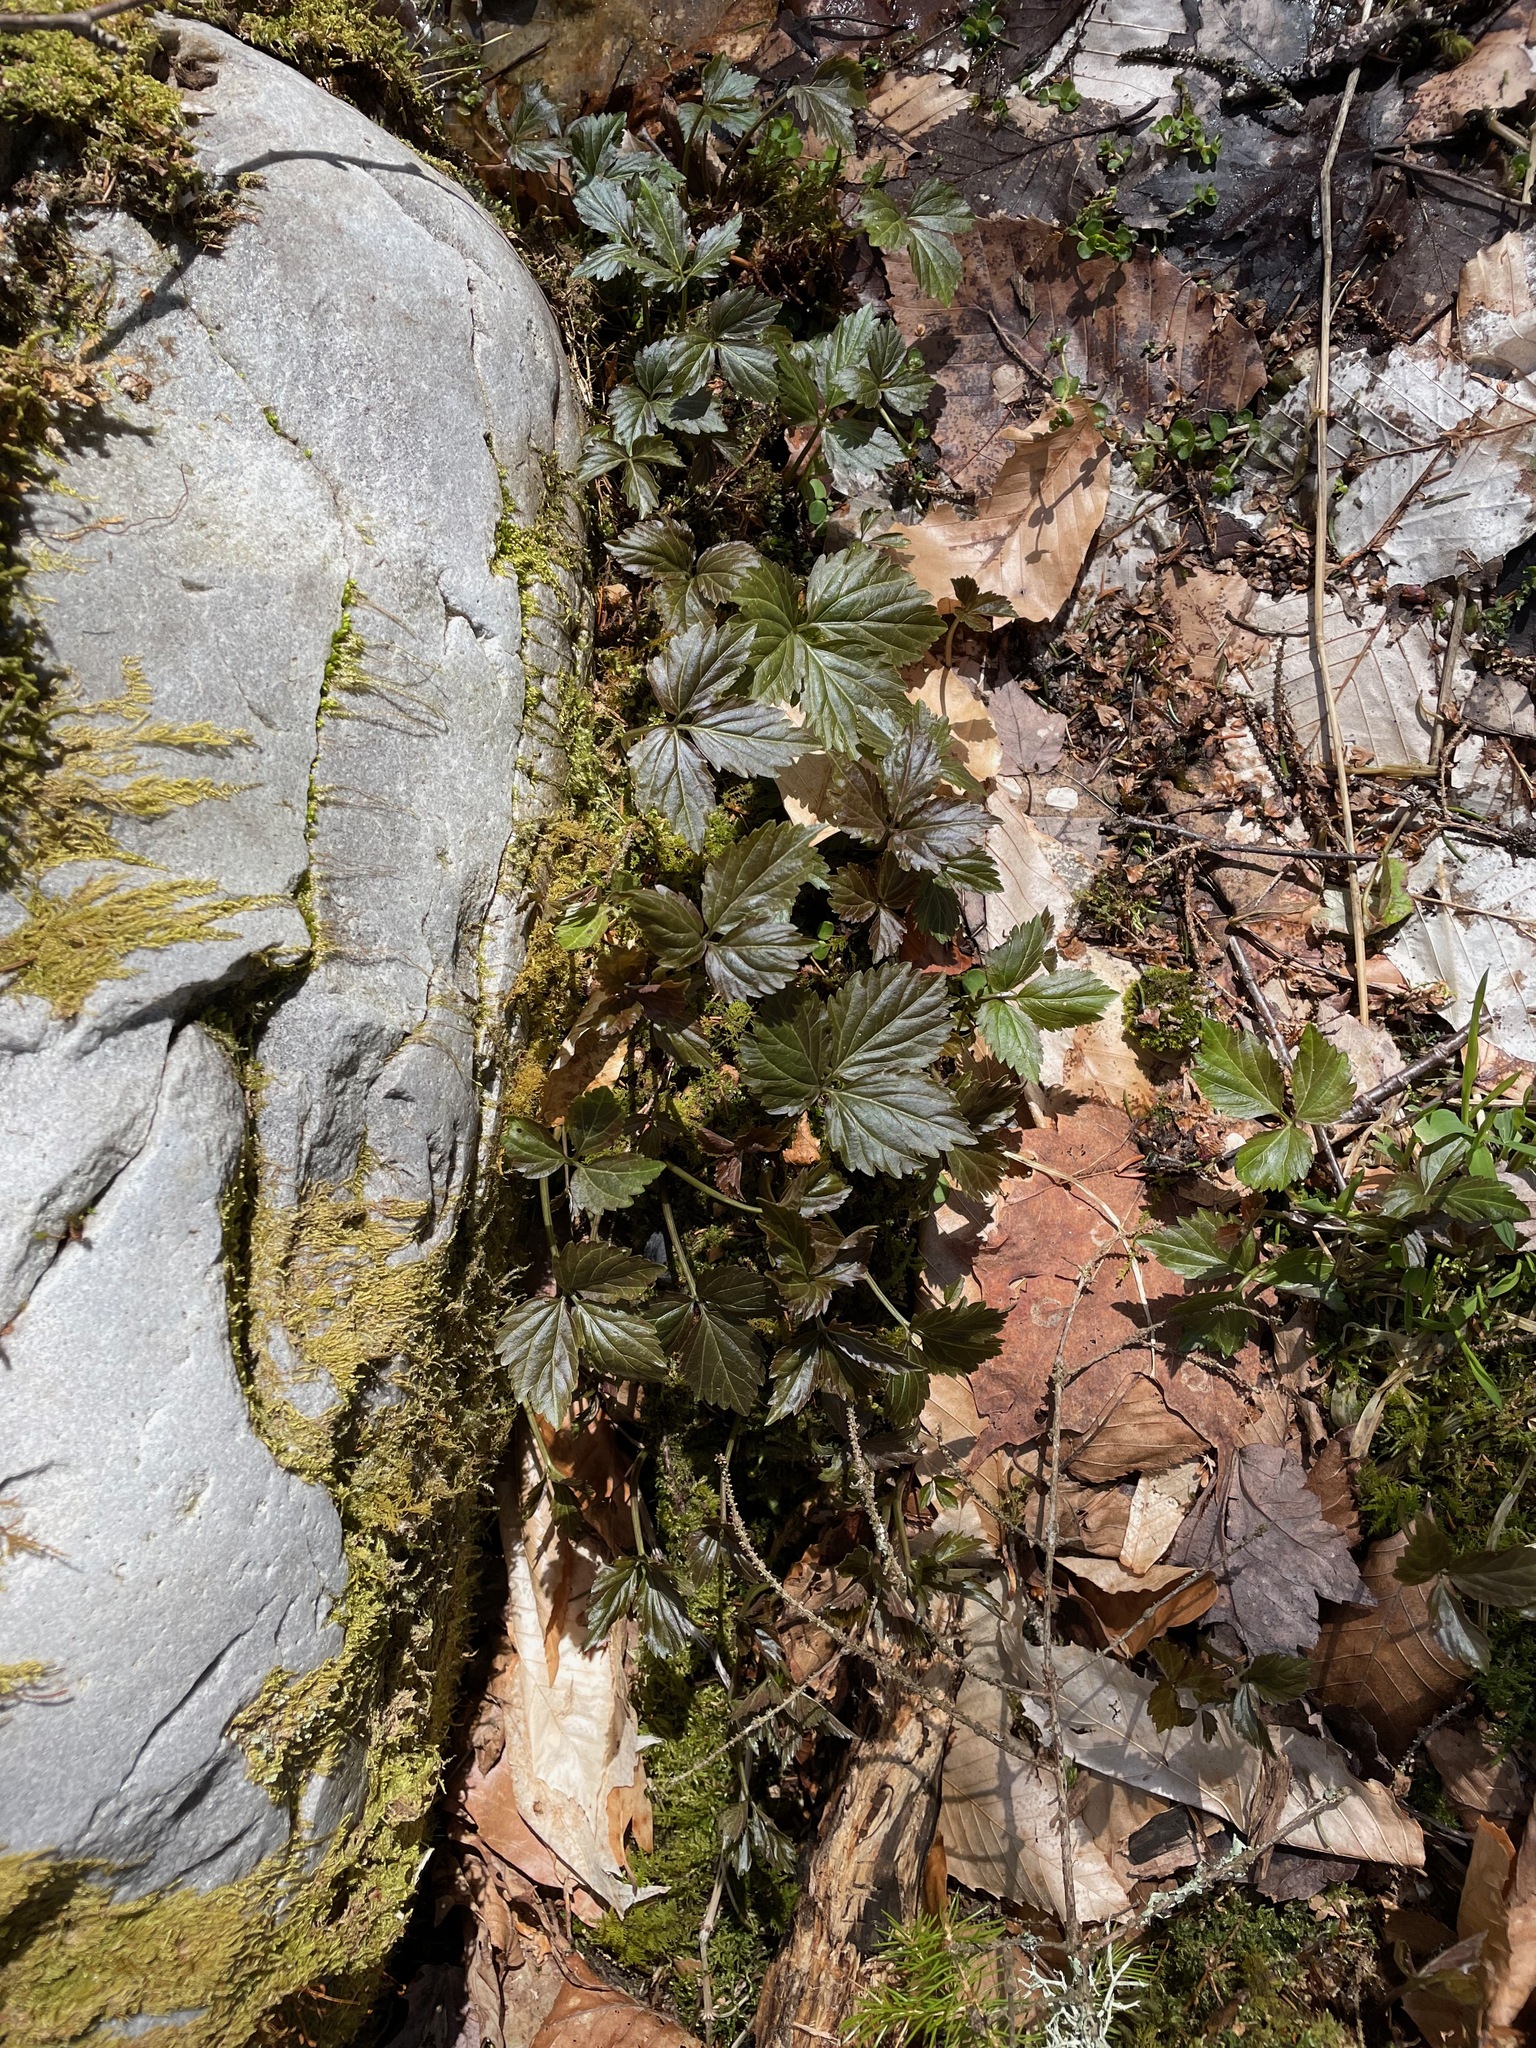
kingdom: Plantae
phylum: Tracheophyta
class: Magnoliopsida
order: Brassicales
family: Brassicaceae
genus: Cardamine
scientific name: Cardamine diphylla
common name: Broad-leaved toothwort
